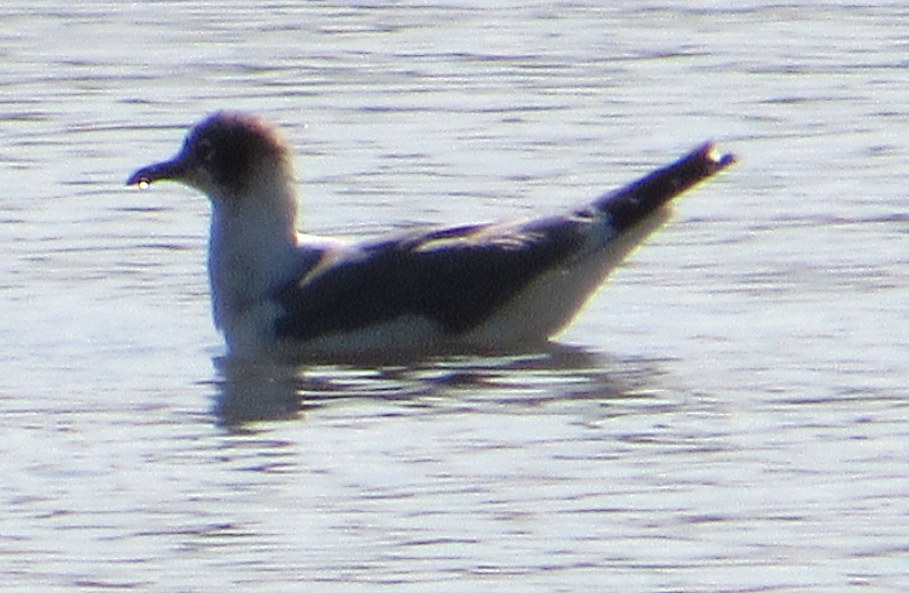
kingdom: Animalia
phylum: Chordata
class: Aves
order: Charadriiformes
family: Laridae
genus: Leucophaeus
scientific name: Leucophaeus pipixcan
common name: Franklin's gull
